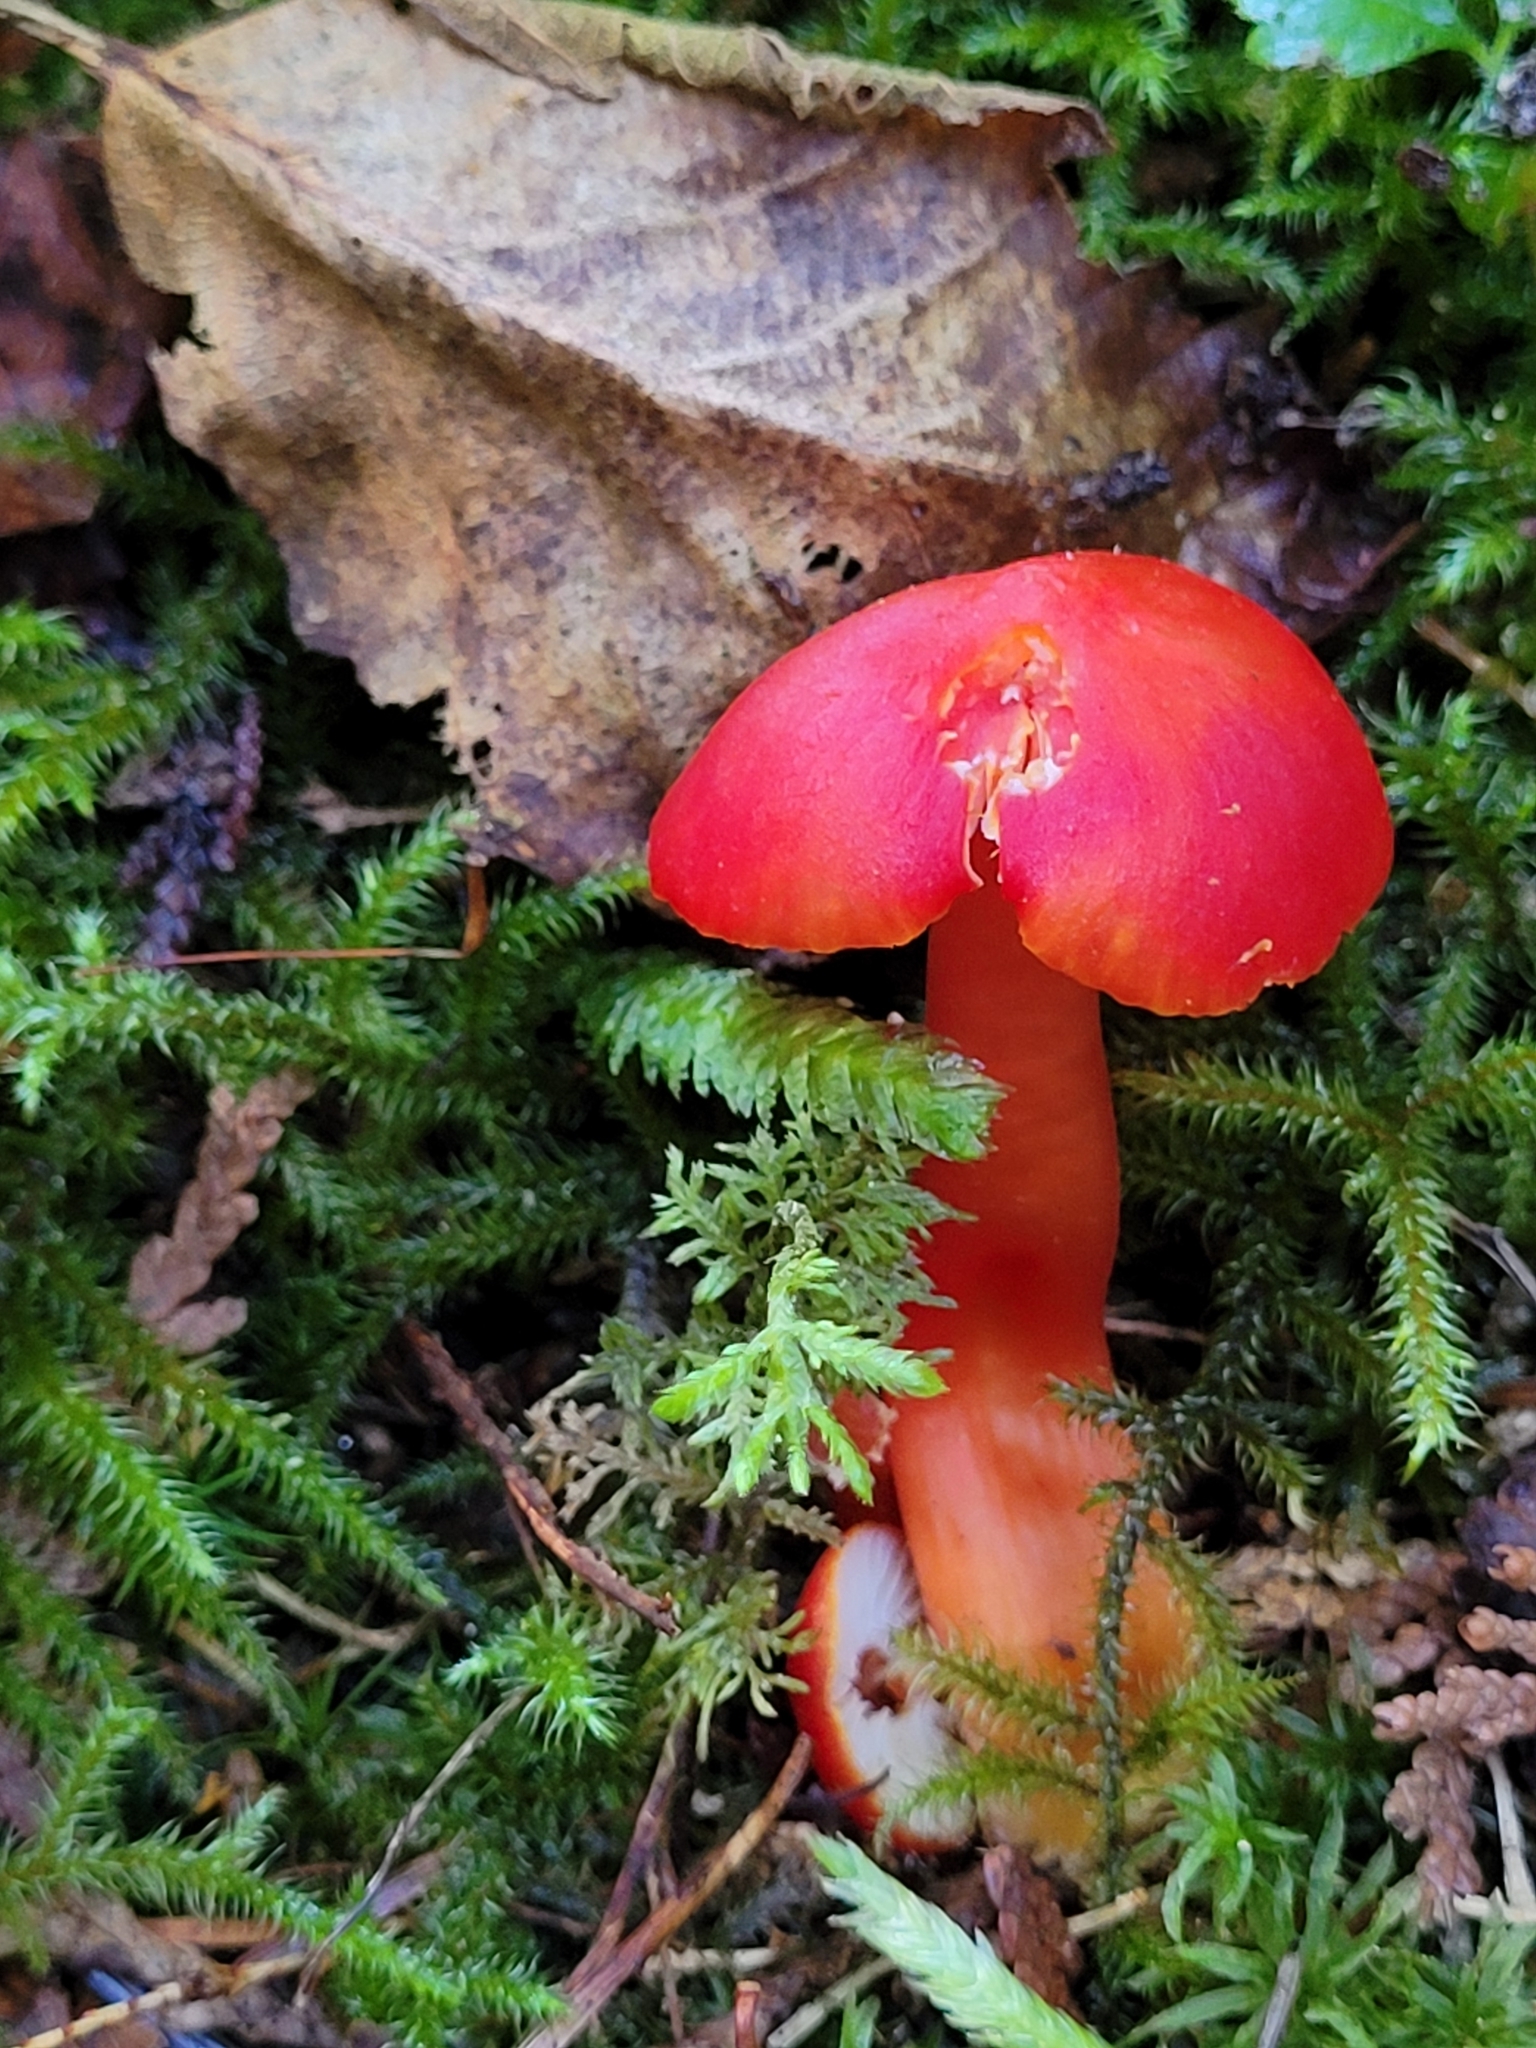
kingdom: Fungi
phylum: Basidiomycota
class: Agaricomycetes
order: Agaricales
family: Hygrophoraceae
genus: Hygrocybe
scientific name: Hygrocybe coccinea
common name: Scarlet hood
